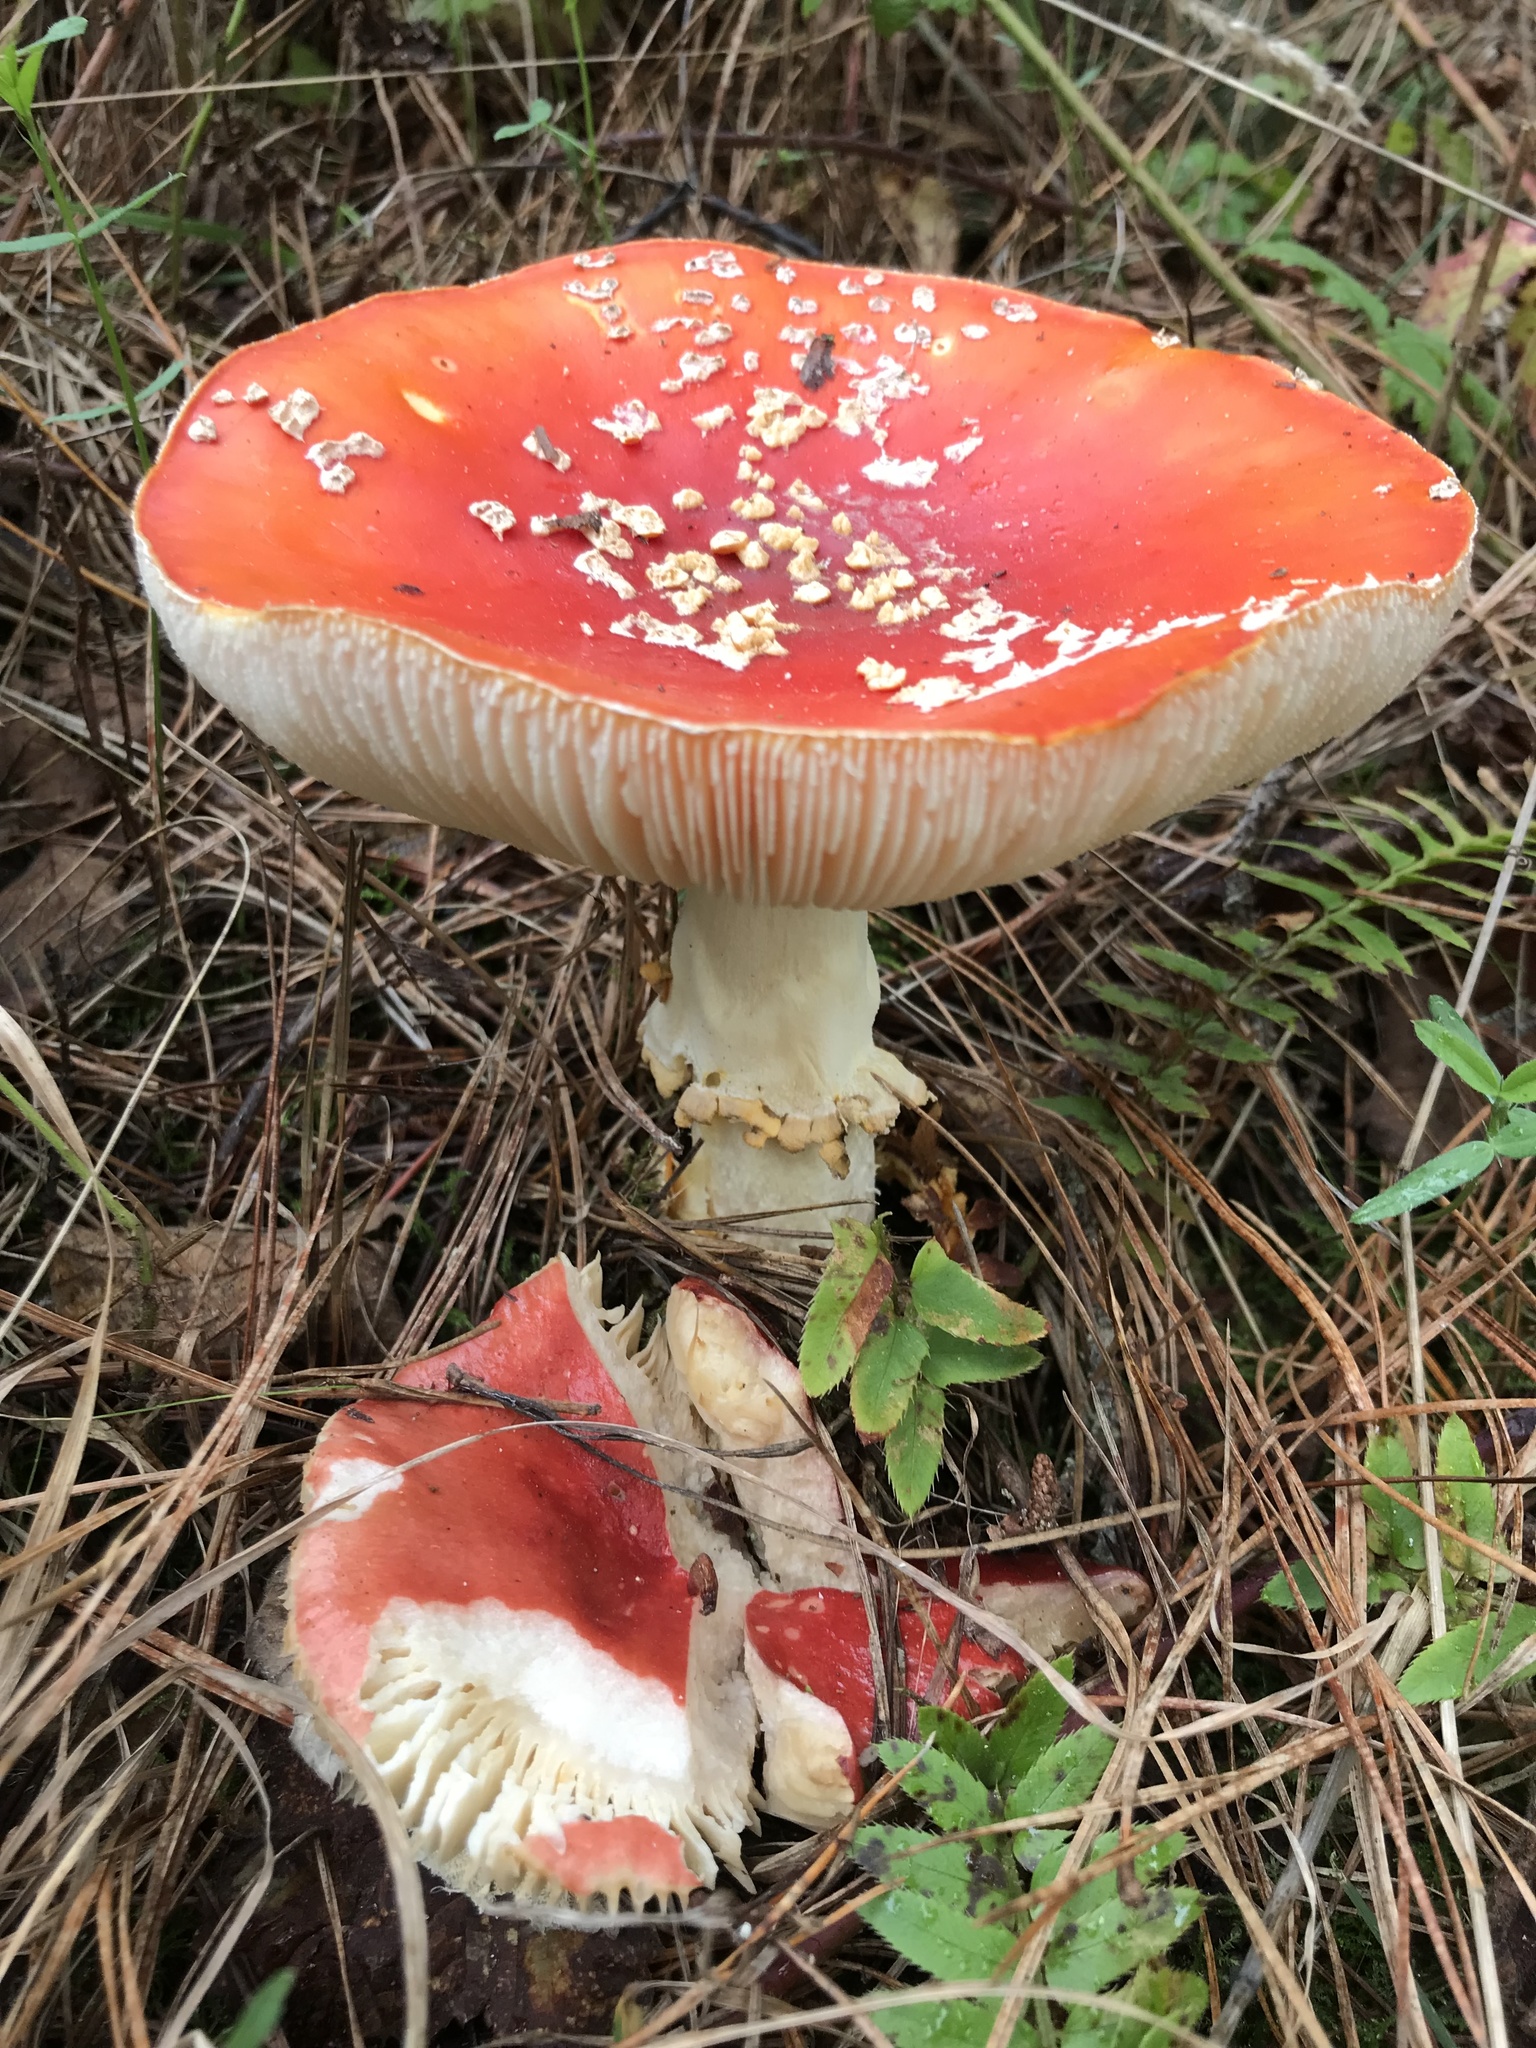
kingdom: Fungi
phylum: Basidiomycota
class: Agaricomycetes
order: Agaricales
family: Amanitaceae
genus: Amanita
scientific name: Amanita muscaria
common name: Fly agaric
